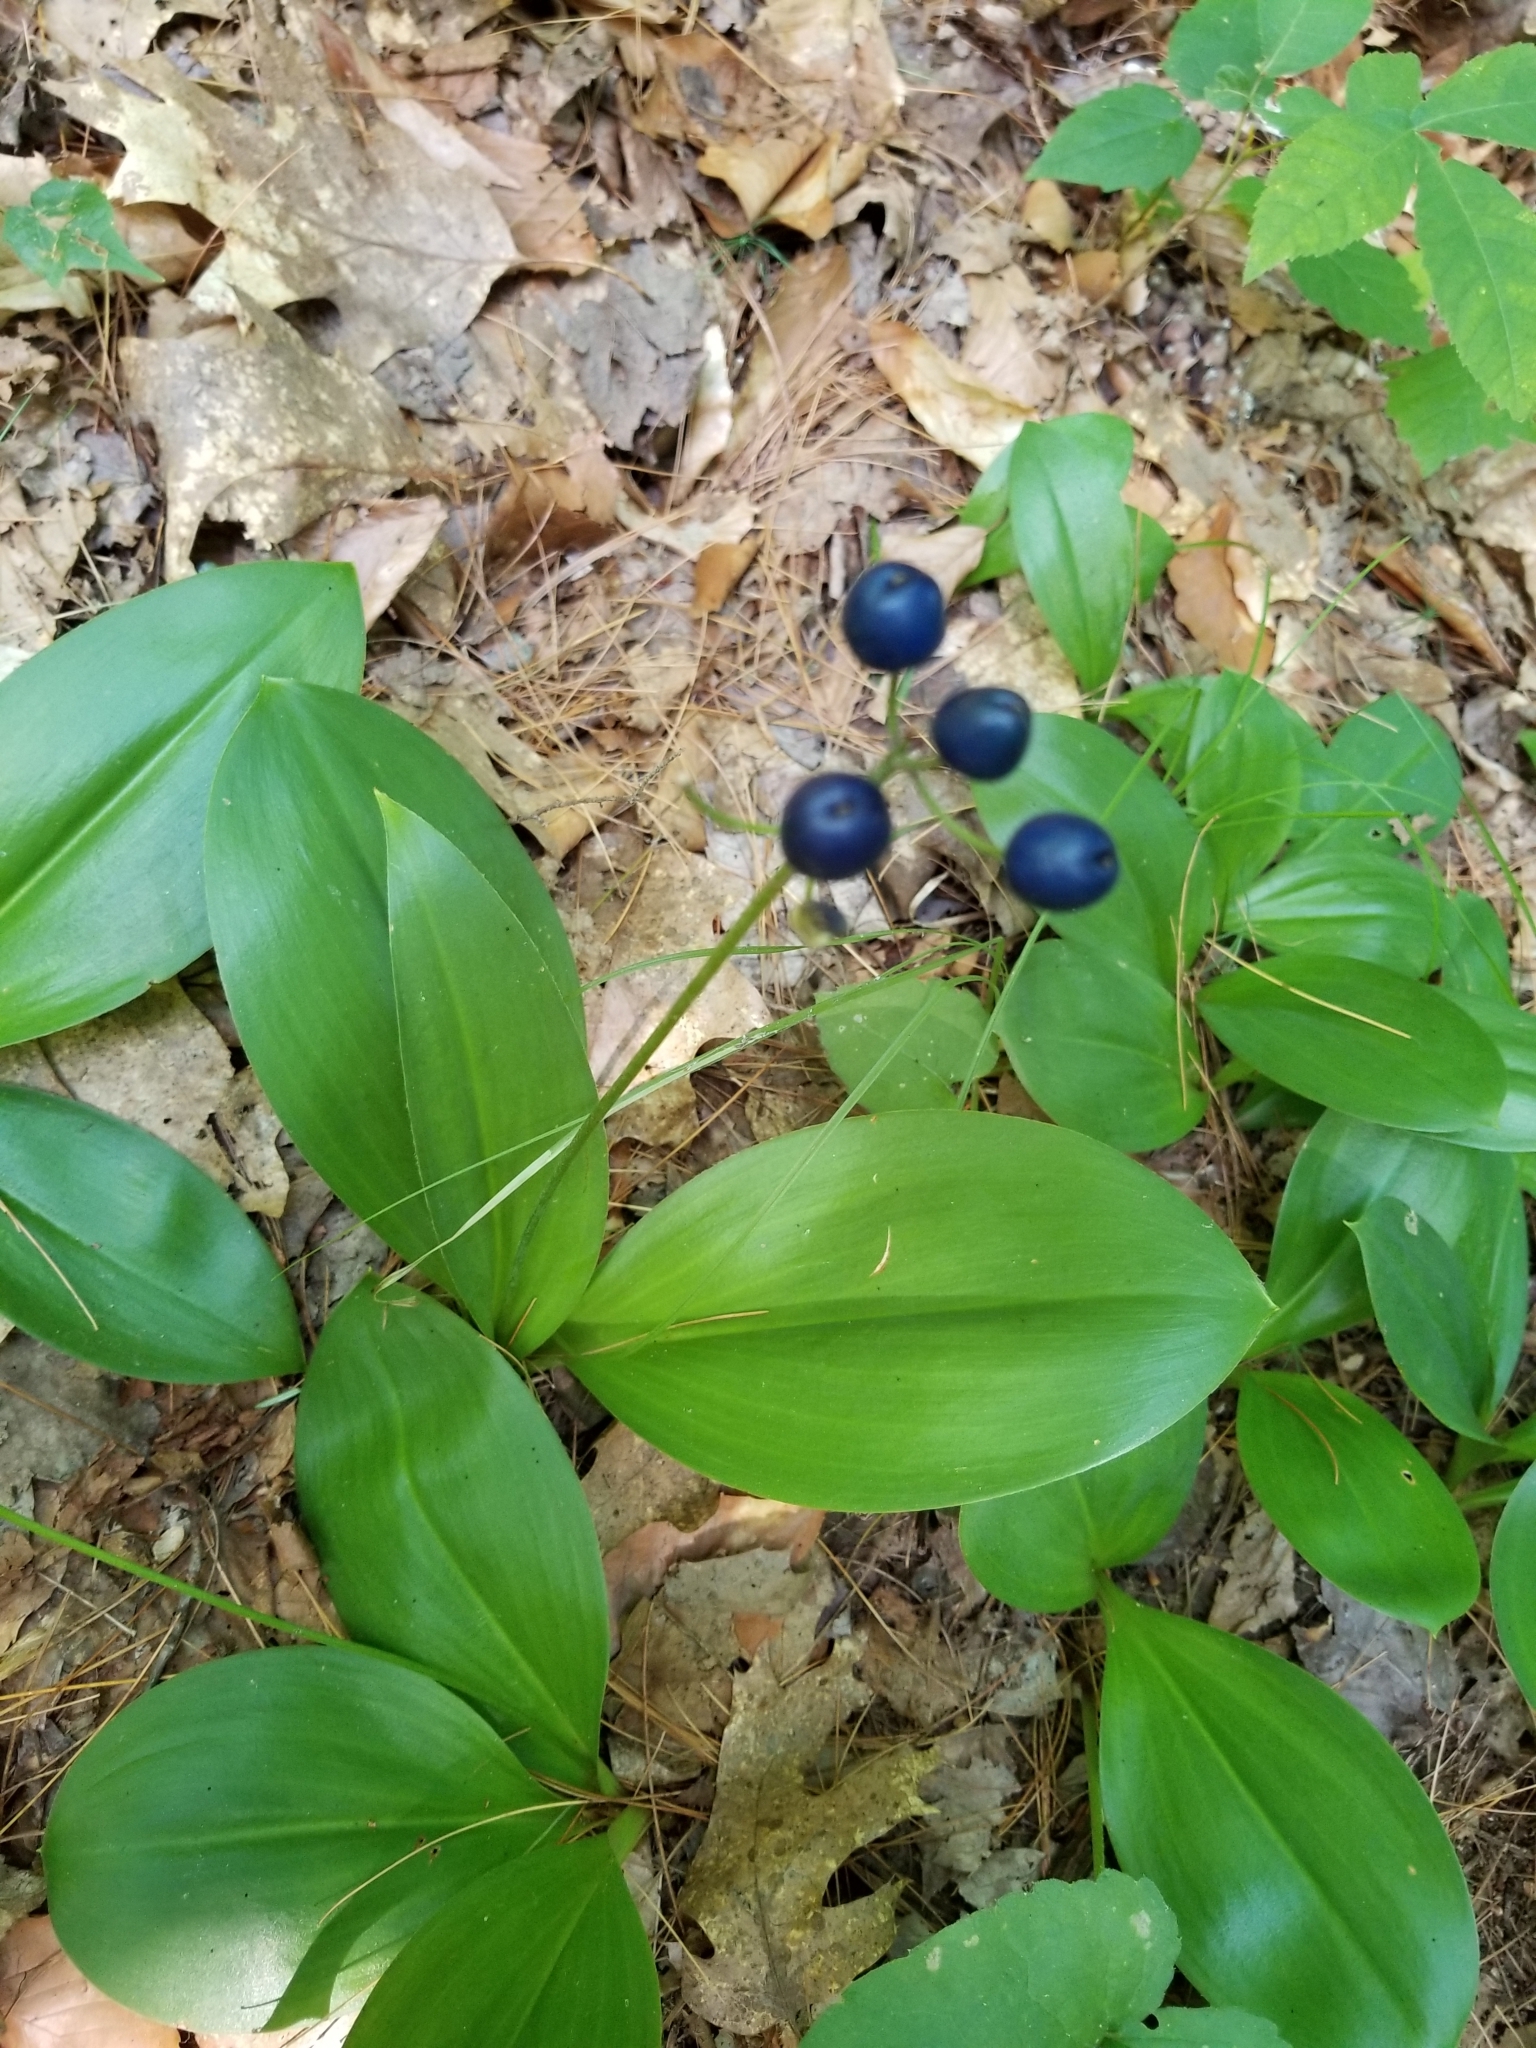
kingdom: Plantae
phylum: Tracheophyta
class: Liliopsida
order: Liliales
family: Liliaceae
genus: Clintonia
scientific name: Clintonia borealis
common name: Yellow clintonia
